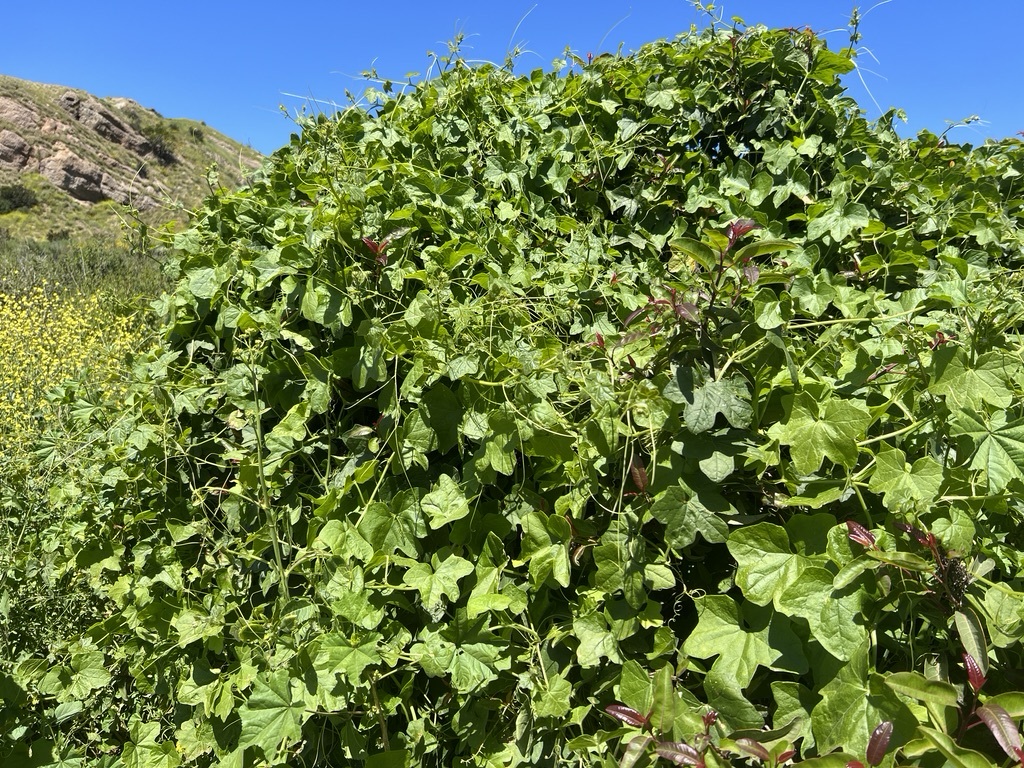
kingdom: Plantae
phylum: Tracheophyta
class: Magnoliopsida
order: Cucurbitales
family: Cucurbitaceae
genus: Marah
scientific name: Marah macrocarpa
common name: Cucamonga manroot
